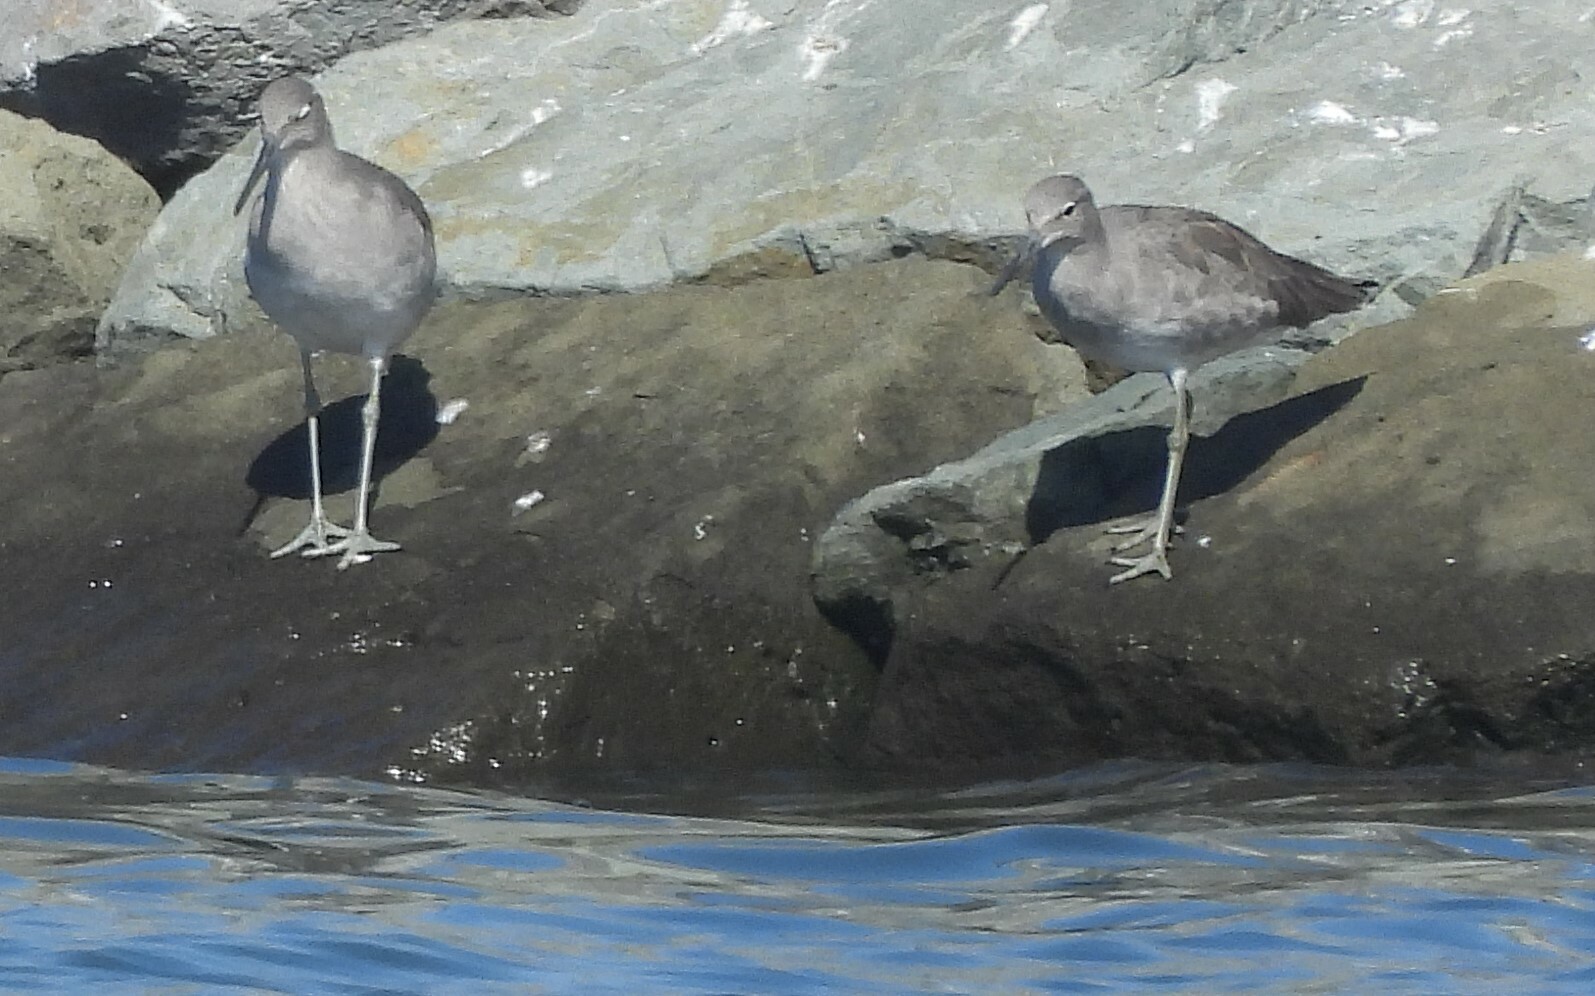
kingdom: Animalia
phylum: Chordata
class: Aves
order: Charadriiformes
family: Scolopacidae
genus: Tringa
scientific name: Tringa semipalmata
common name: Willet
